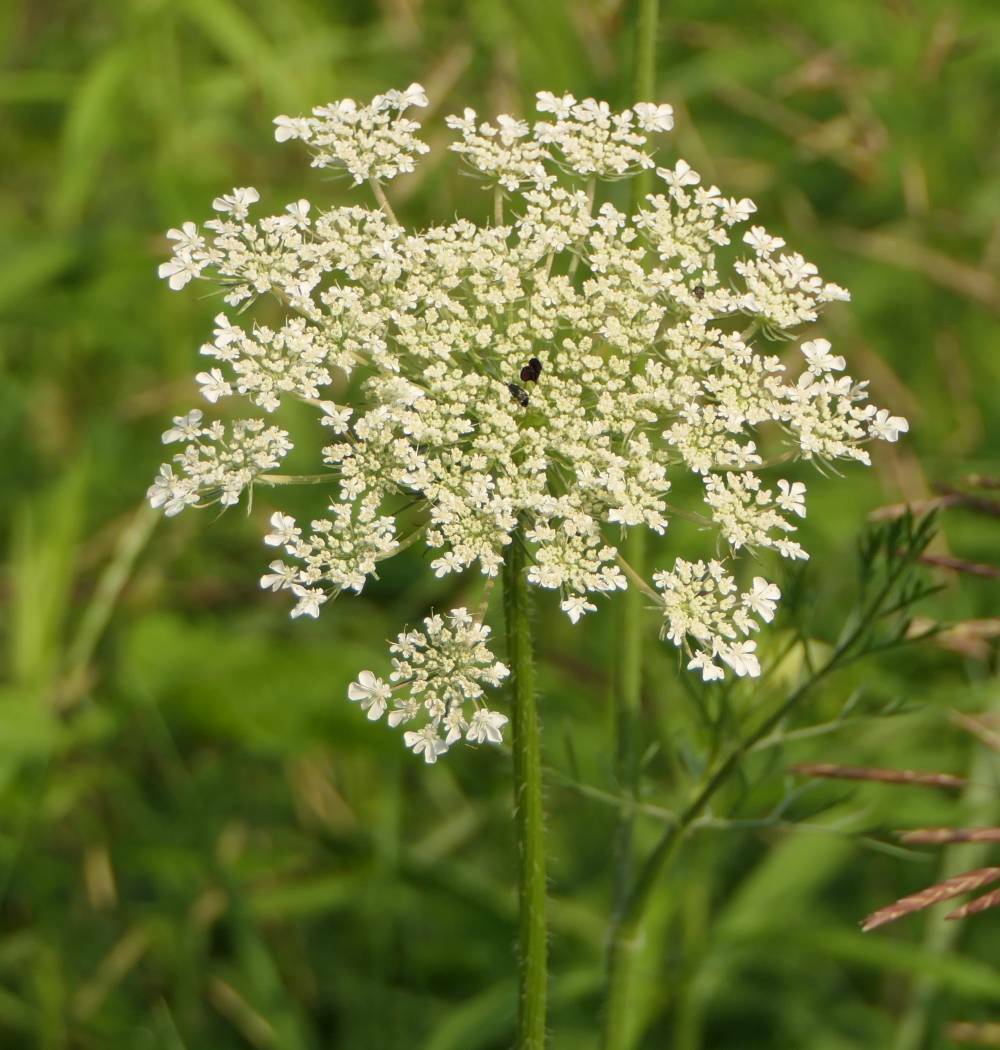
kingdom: Plantae
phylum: Tracheophyta
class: Magnoliopsida
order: Apiales
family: Apiaceae
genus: Daucus
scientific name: Daucus carota
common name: Wild carrot
